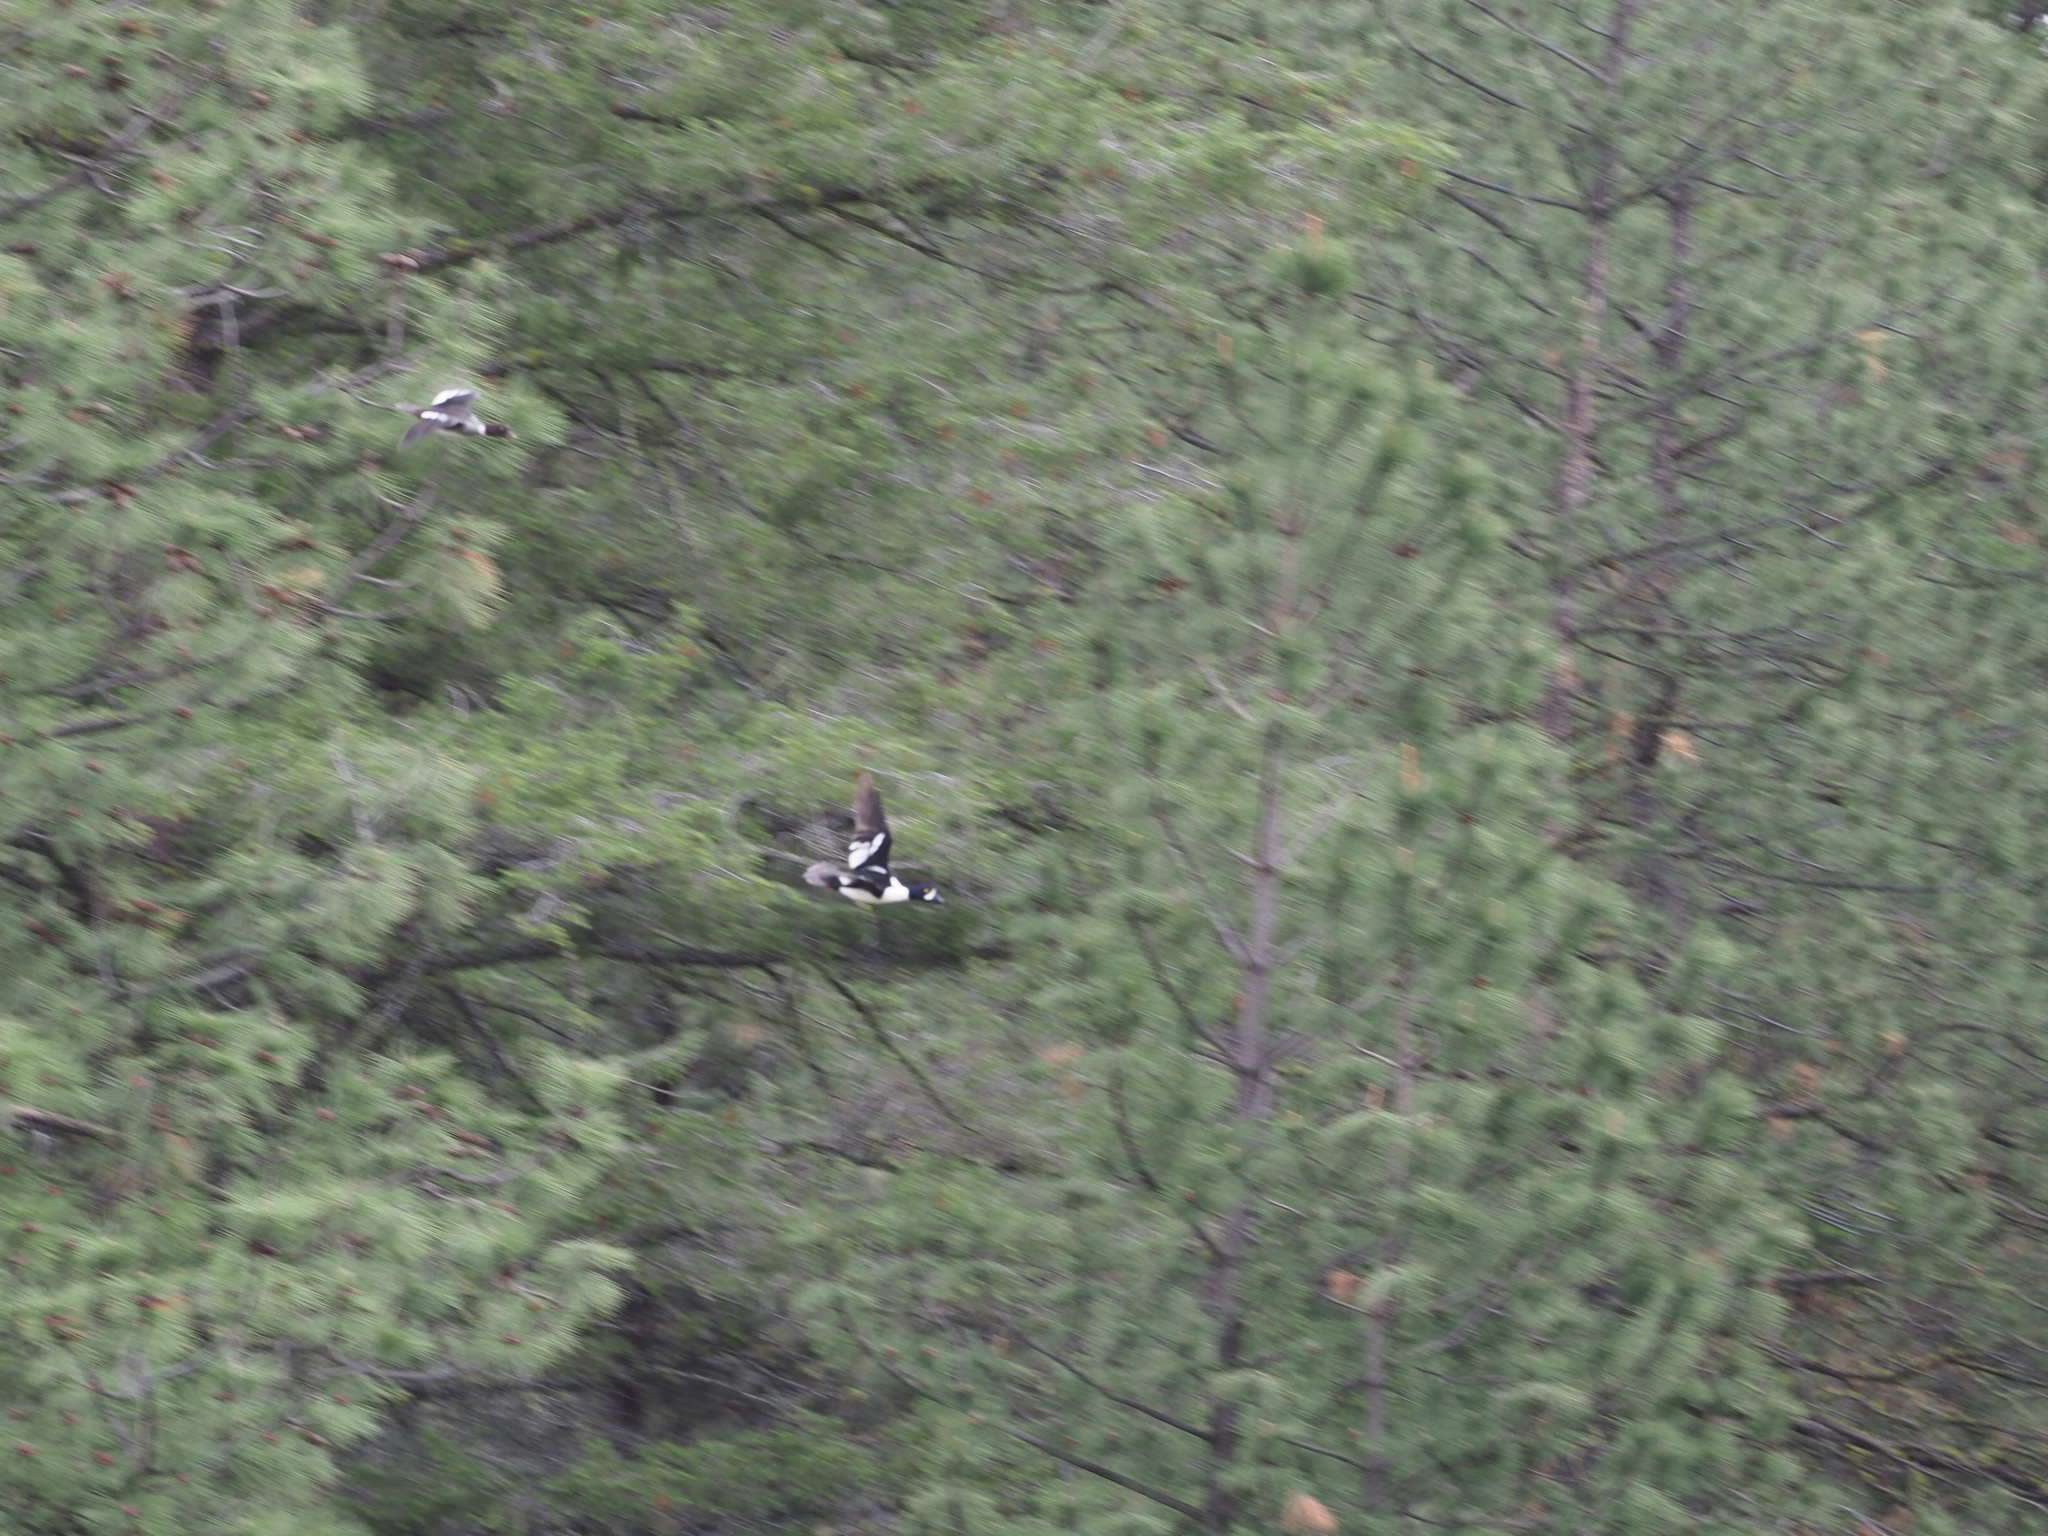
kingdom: Animalia
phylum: Chordata
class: Aves
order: Anseriformes
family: Anatidae
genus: Bucephala
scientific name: Bucephala islandica
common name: Barrow's goldeneye
